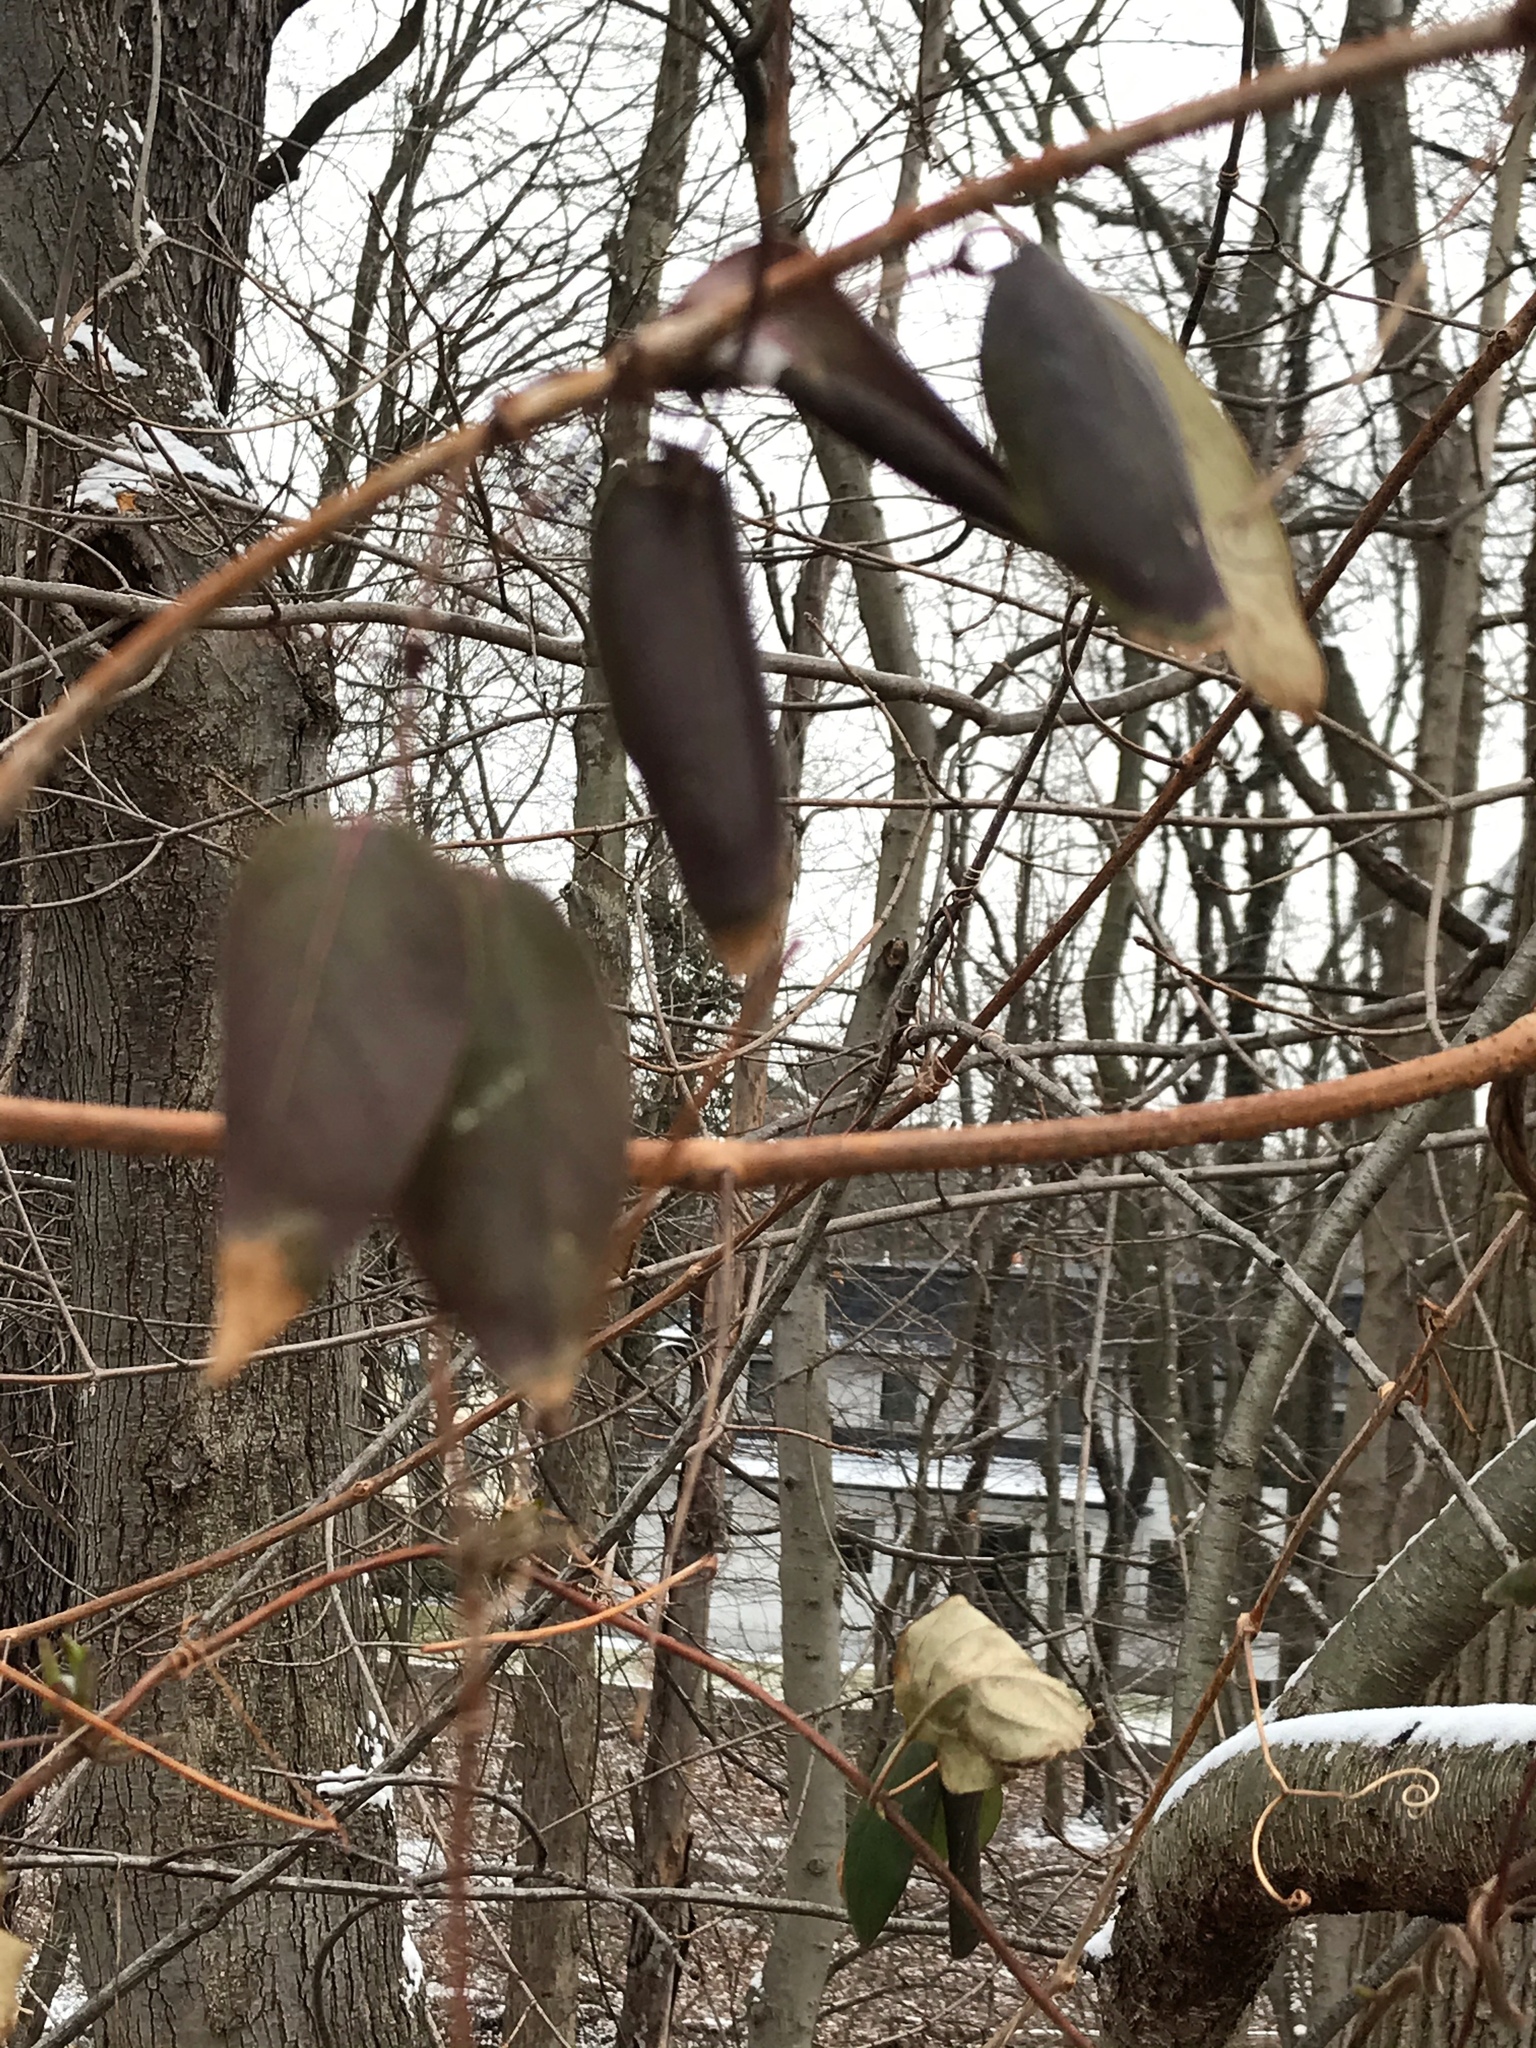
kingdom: Plantae
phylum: Tracheophyta
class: Magnoliopsida
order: Dipsacales
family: Caprifoliaceae
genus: Lonicera
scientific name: Lonicera japonica
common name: Japanese honeysuckle
